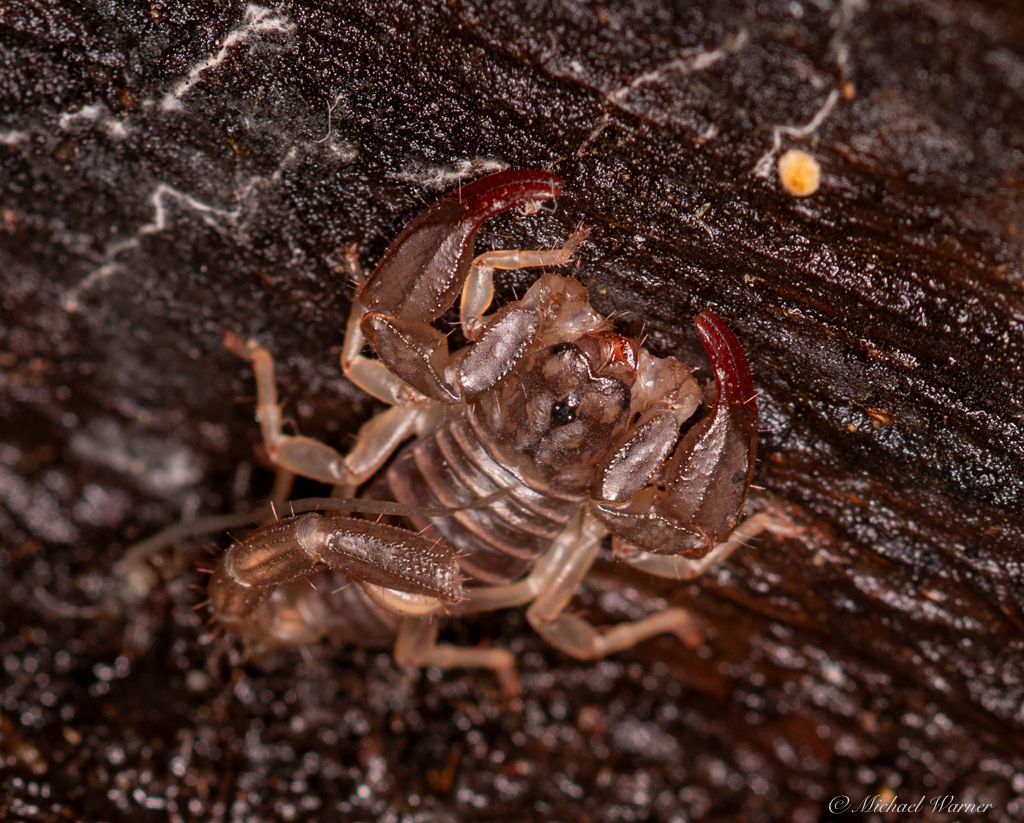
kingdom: Animalia
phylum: Arthropoda
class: Arachnida
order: Scorpiones
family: Chactidae
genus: Uroctonus
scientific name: Uroctonus mordax
